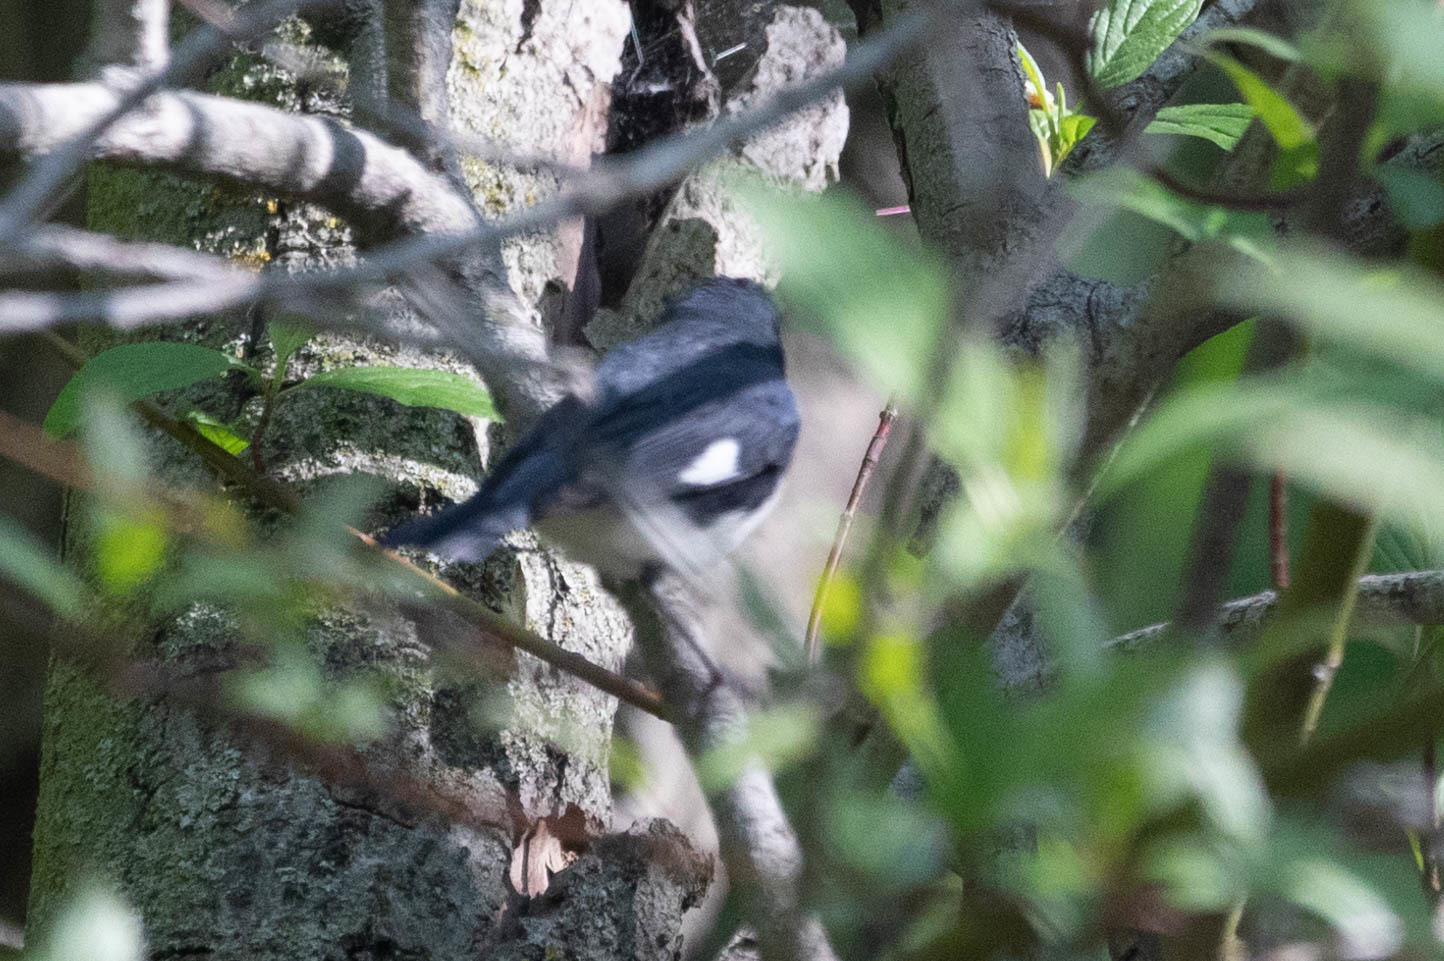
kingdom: Animalia
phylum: Chordata
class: Aves
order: Passeriformes
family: Parulidae
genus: Setophaga
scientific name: Setophaga caerulescens
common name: Black-throated blue warbler
